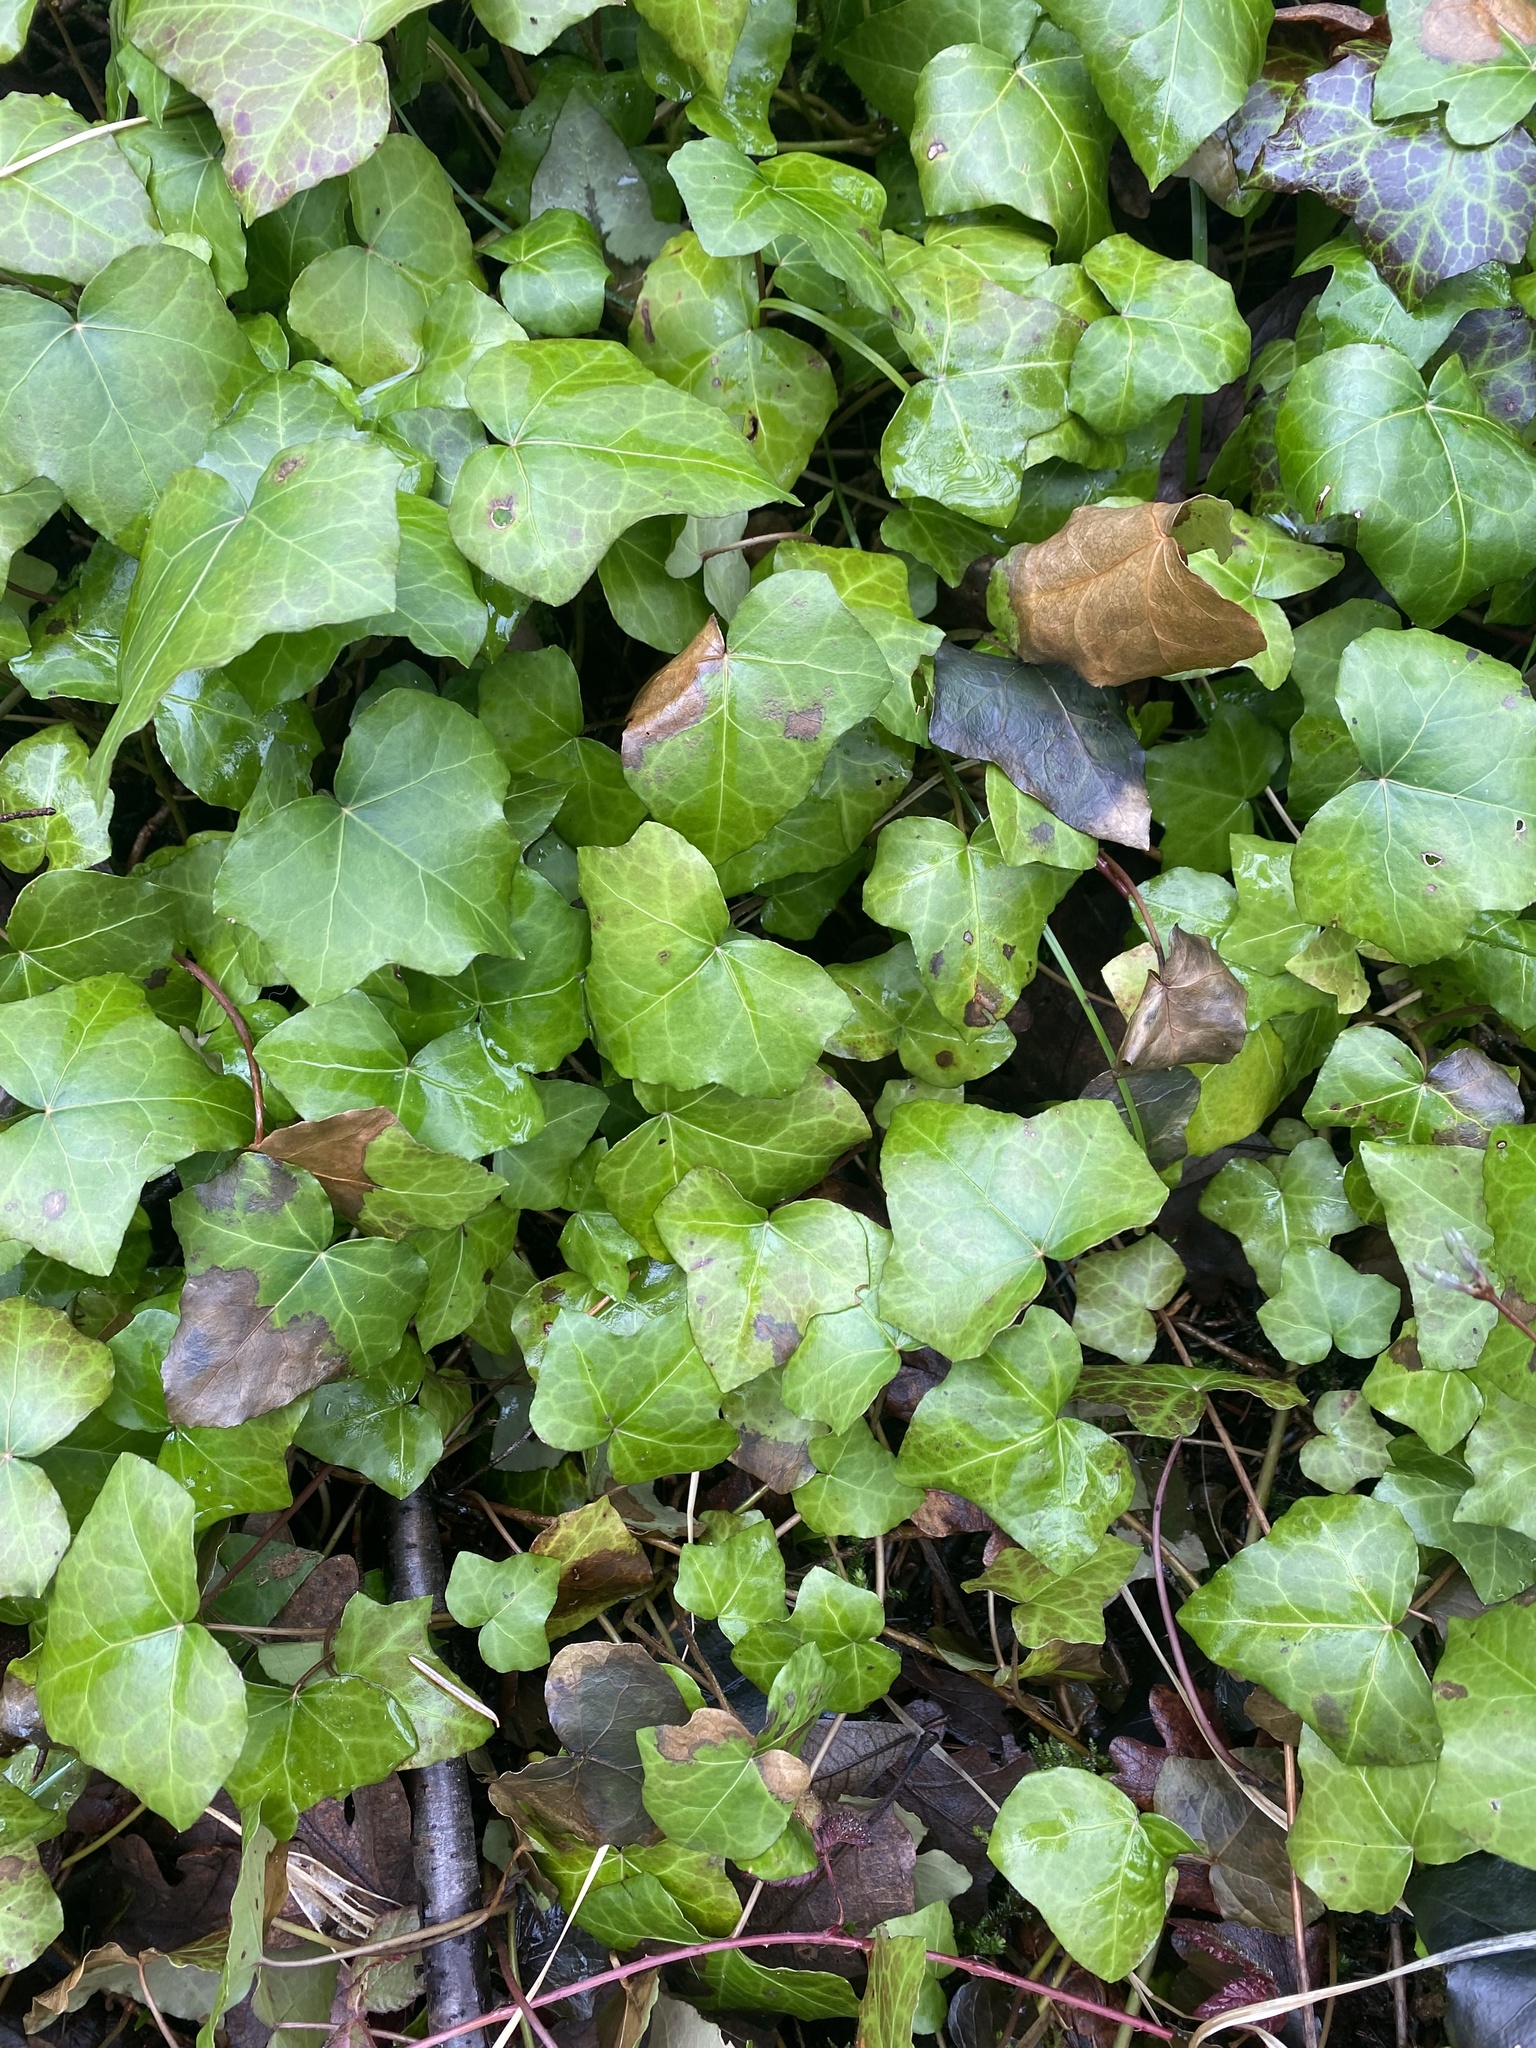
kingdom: Plantae
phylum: Tracheophyta
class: Magnoliopsida
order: Apiales
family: Araliaceae
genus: Hedera
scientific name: Hedera helix
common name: Ivy
